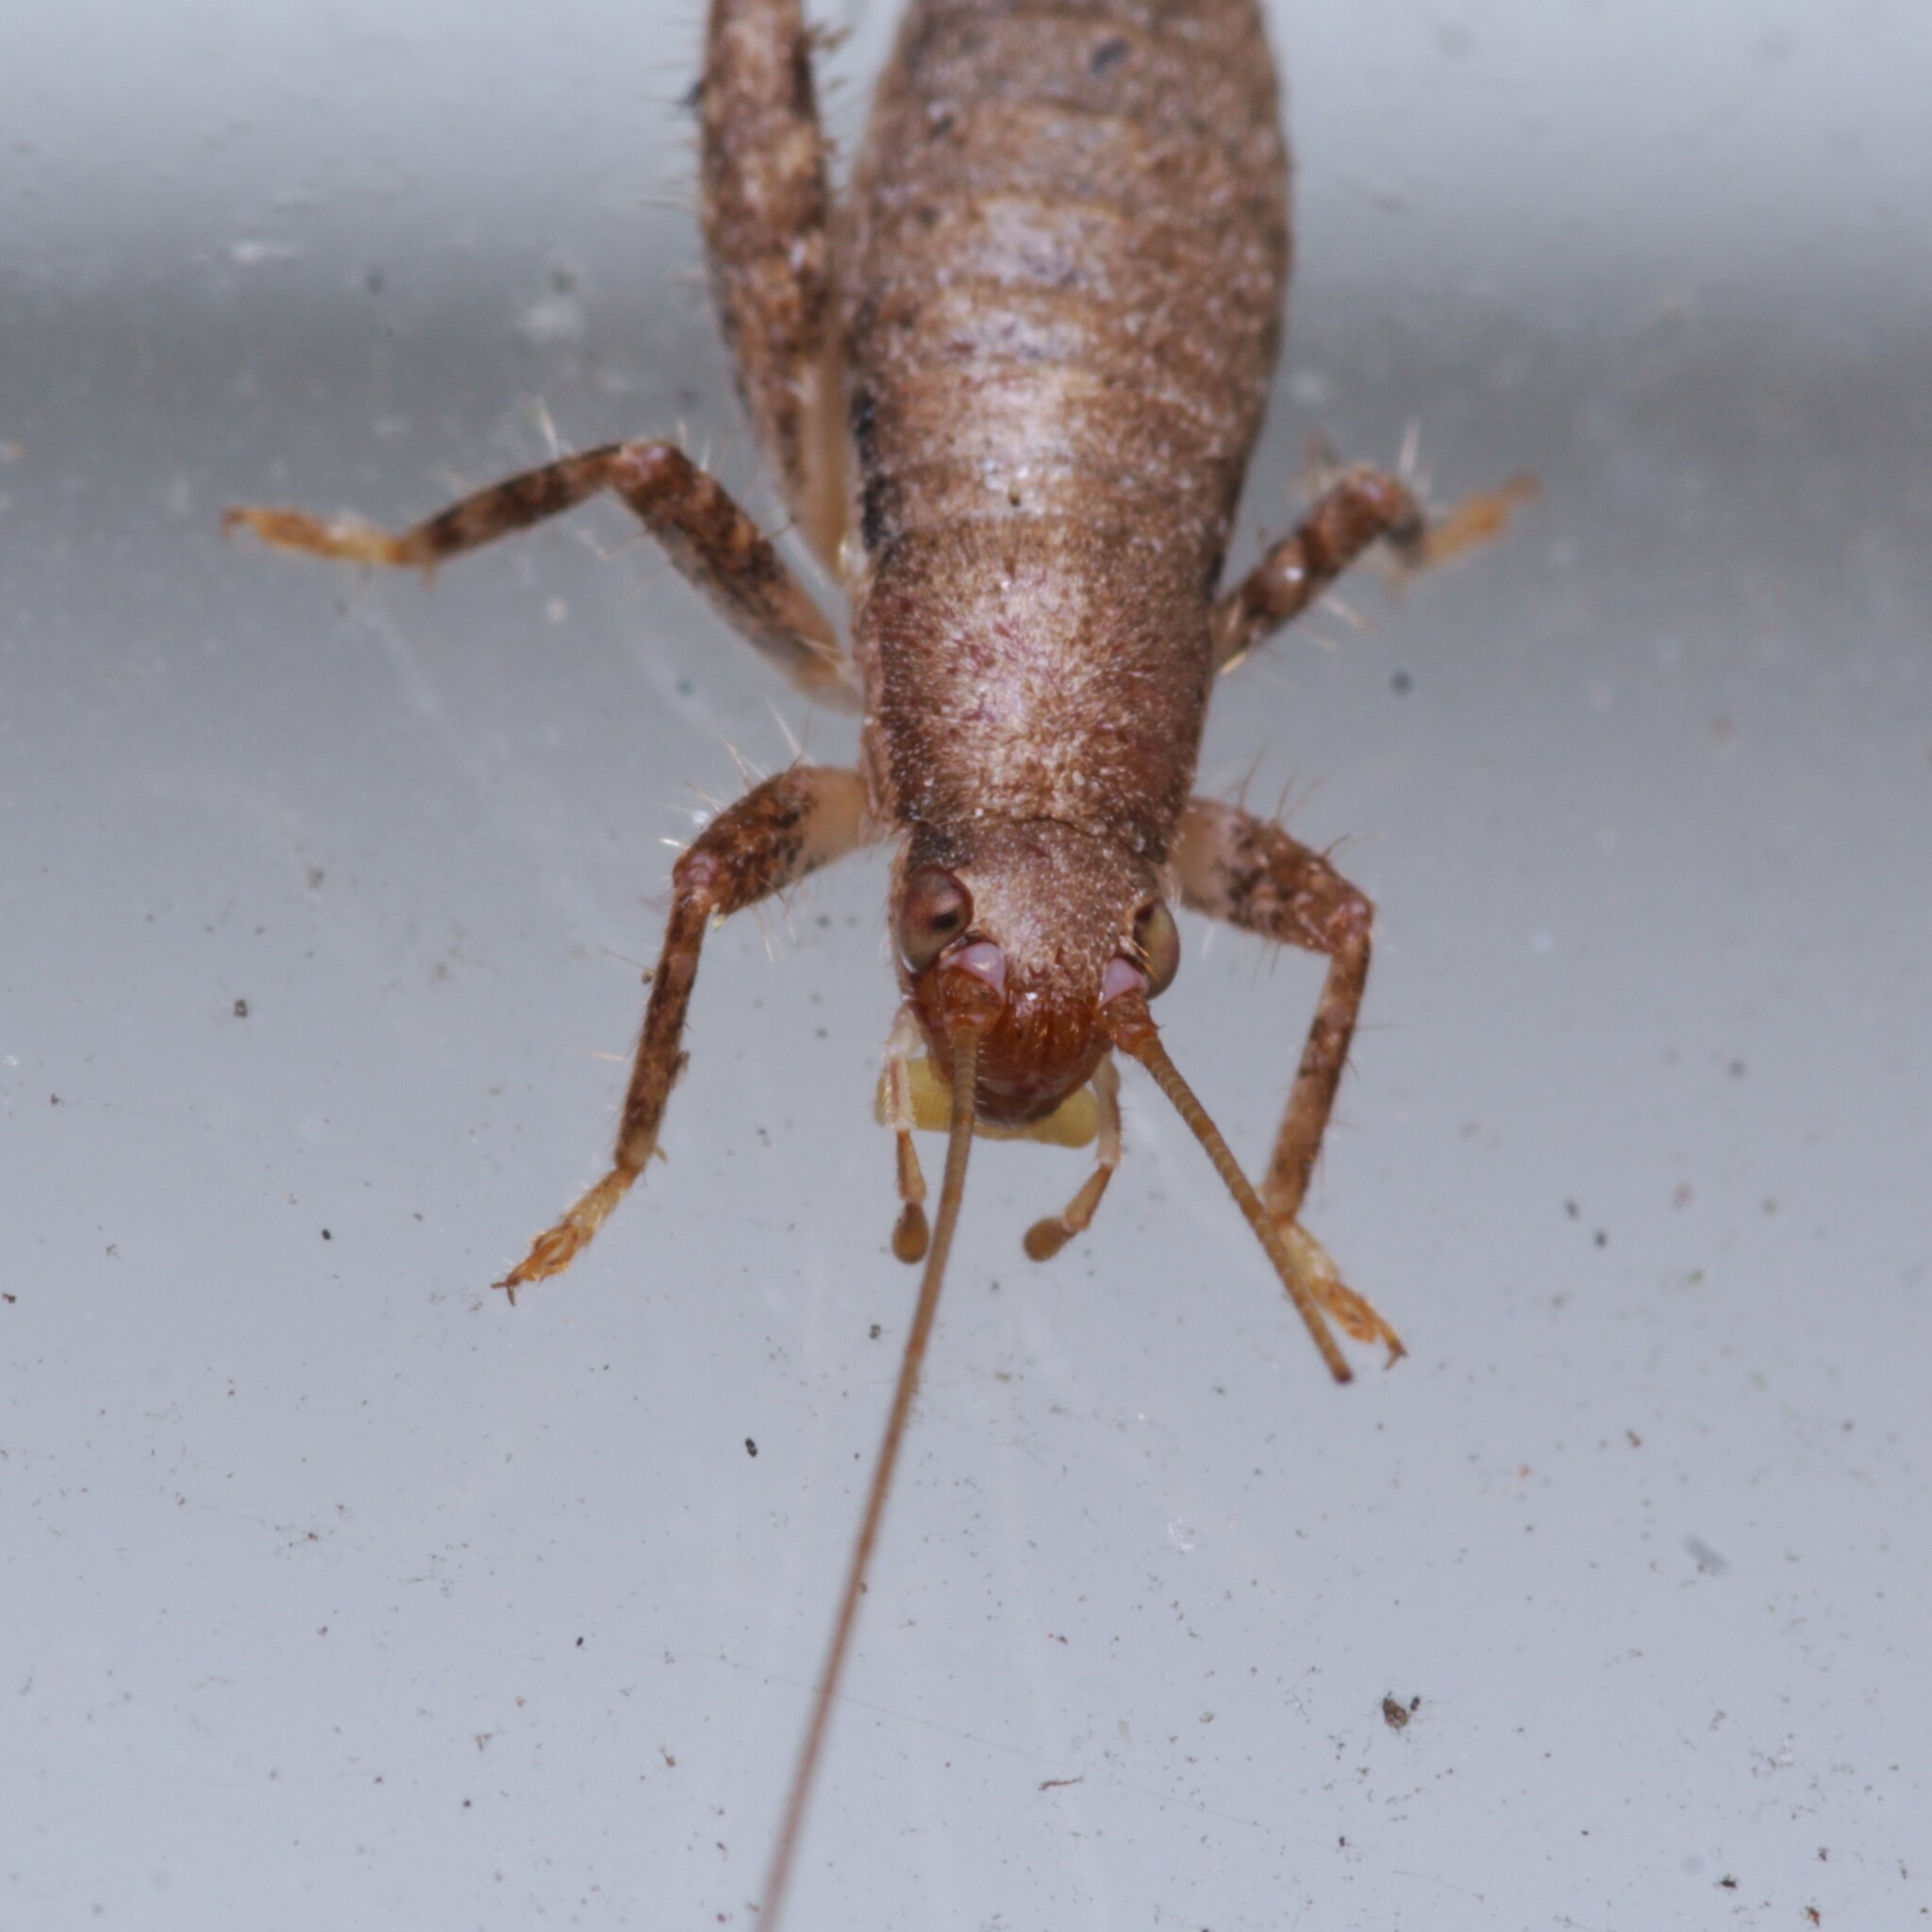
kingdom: Animalia
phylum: Arthropoda
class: Insecta
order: Orthoptera
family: Mogoplistidae
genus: Cycloptilum
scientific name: Cycloptilum slossoni
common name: Slosson's scaly cricket
